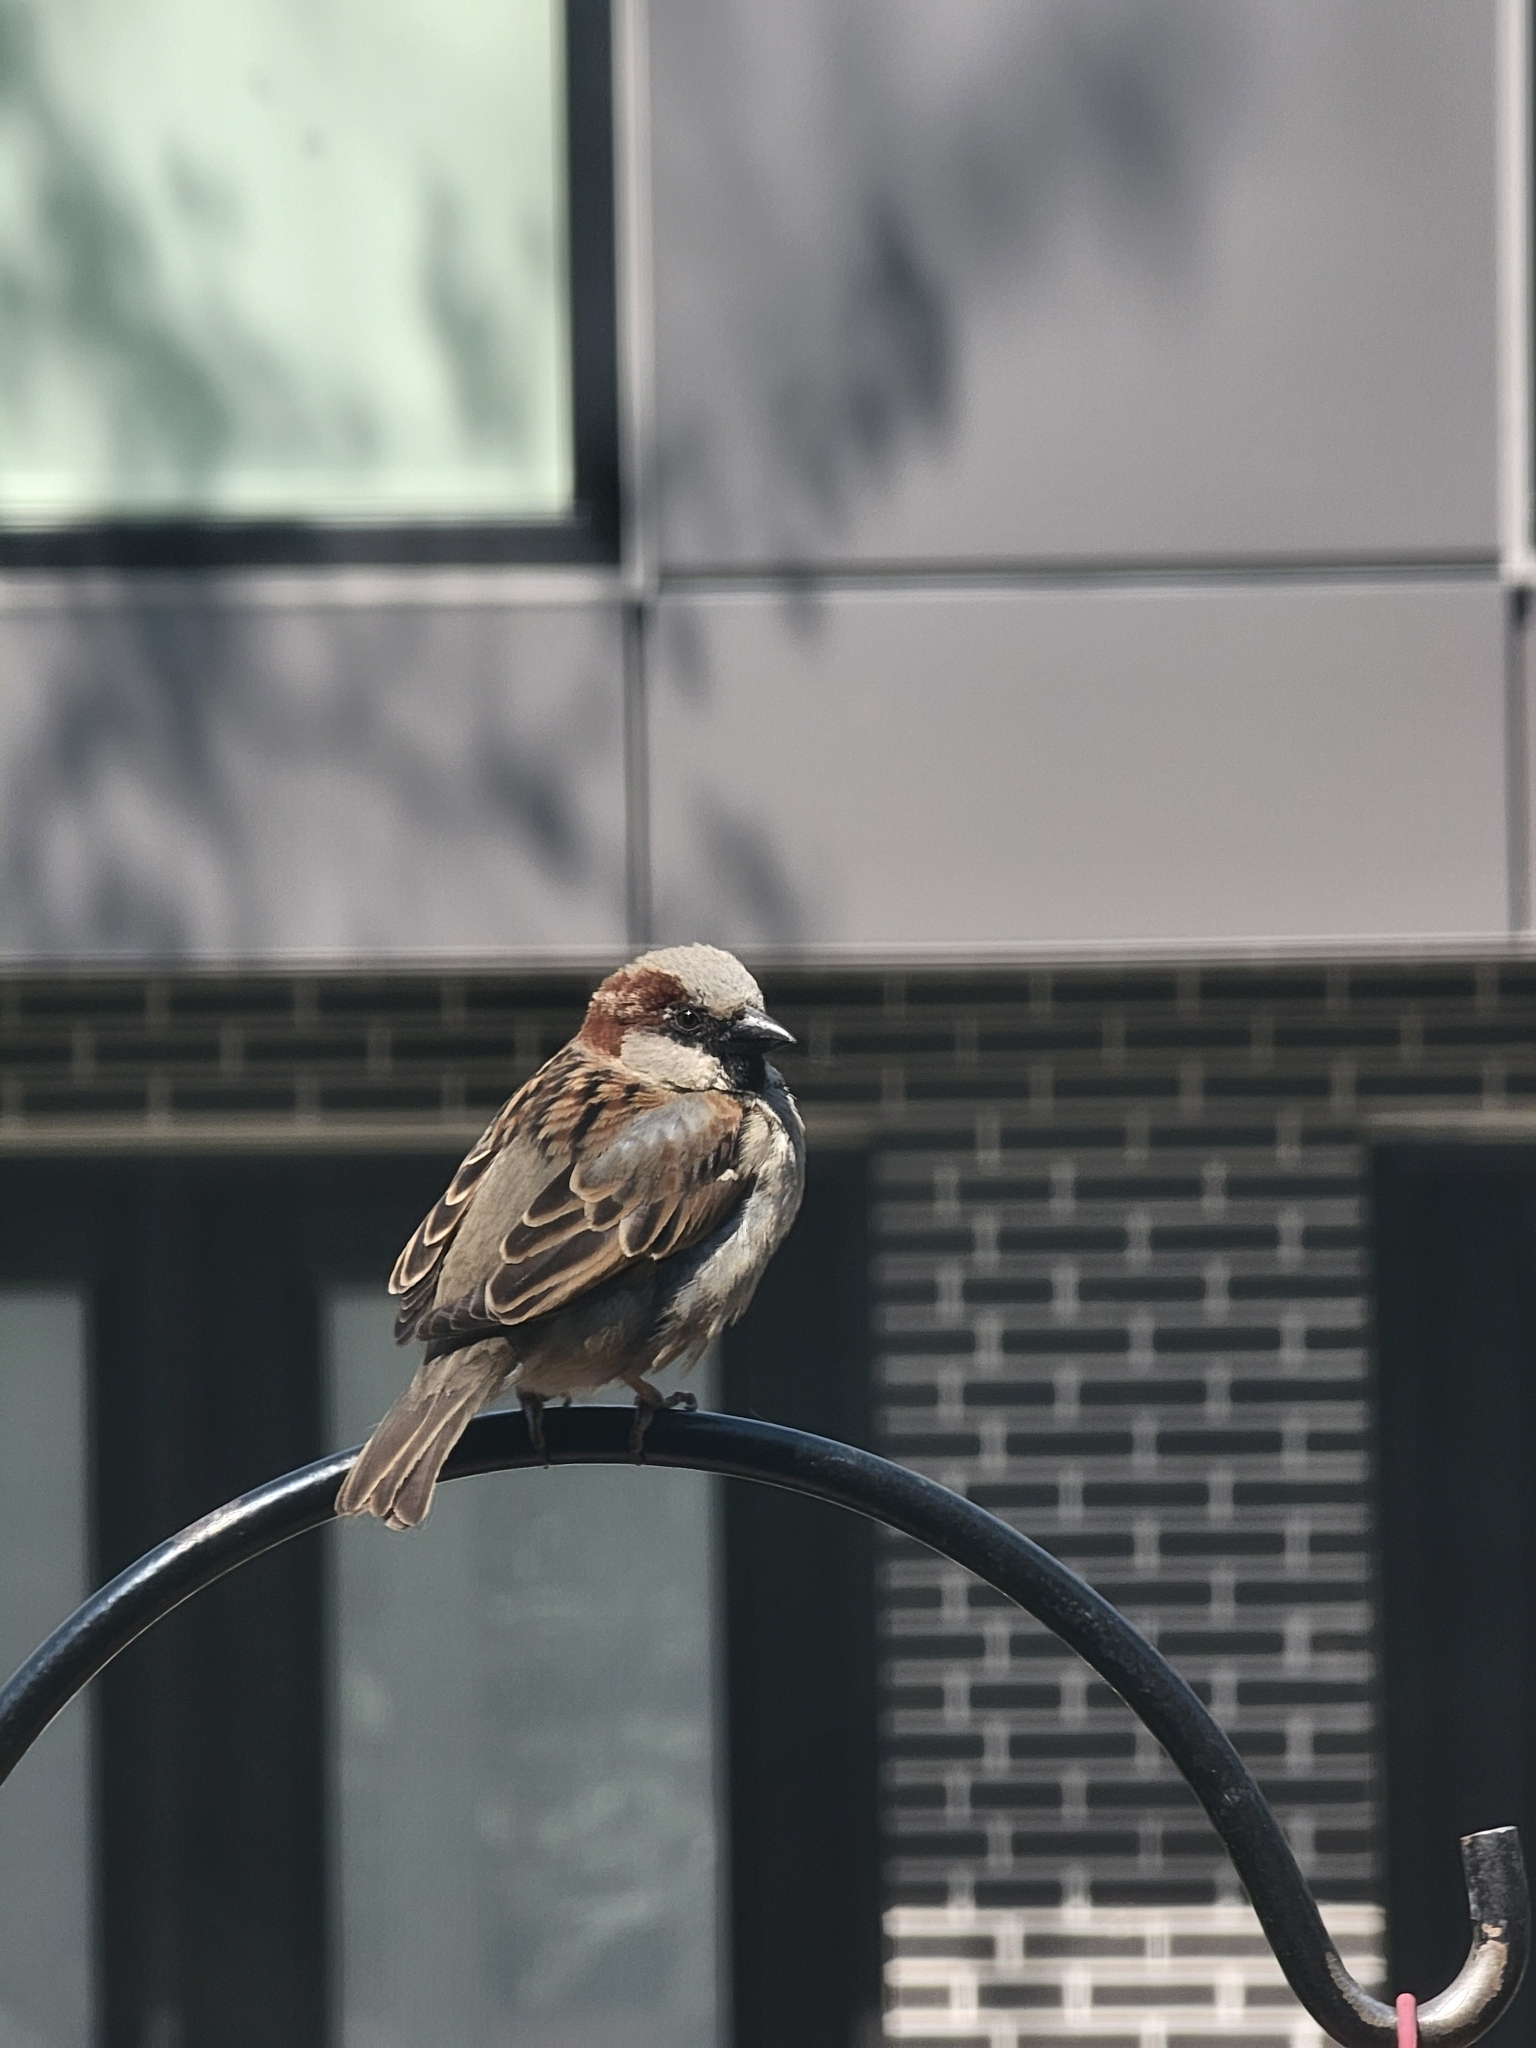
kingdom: Animalia
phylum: Chordata
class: Aves
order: Passeriformes
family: Passeridae
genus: Passer
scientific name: Passer domesticus
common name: House sparrow
